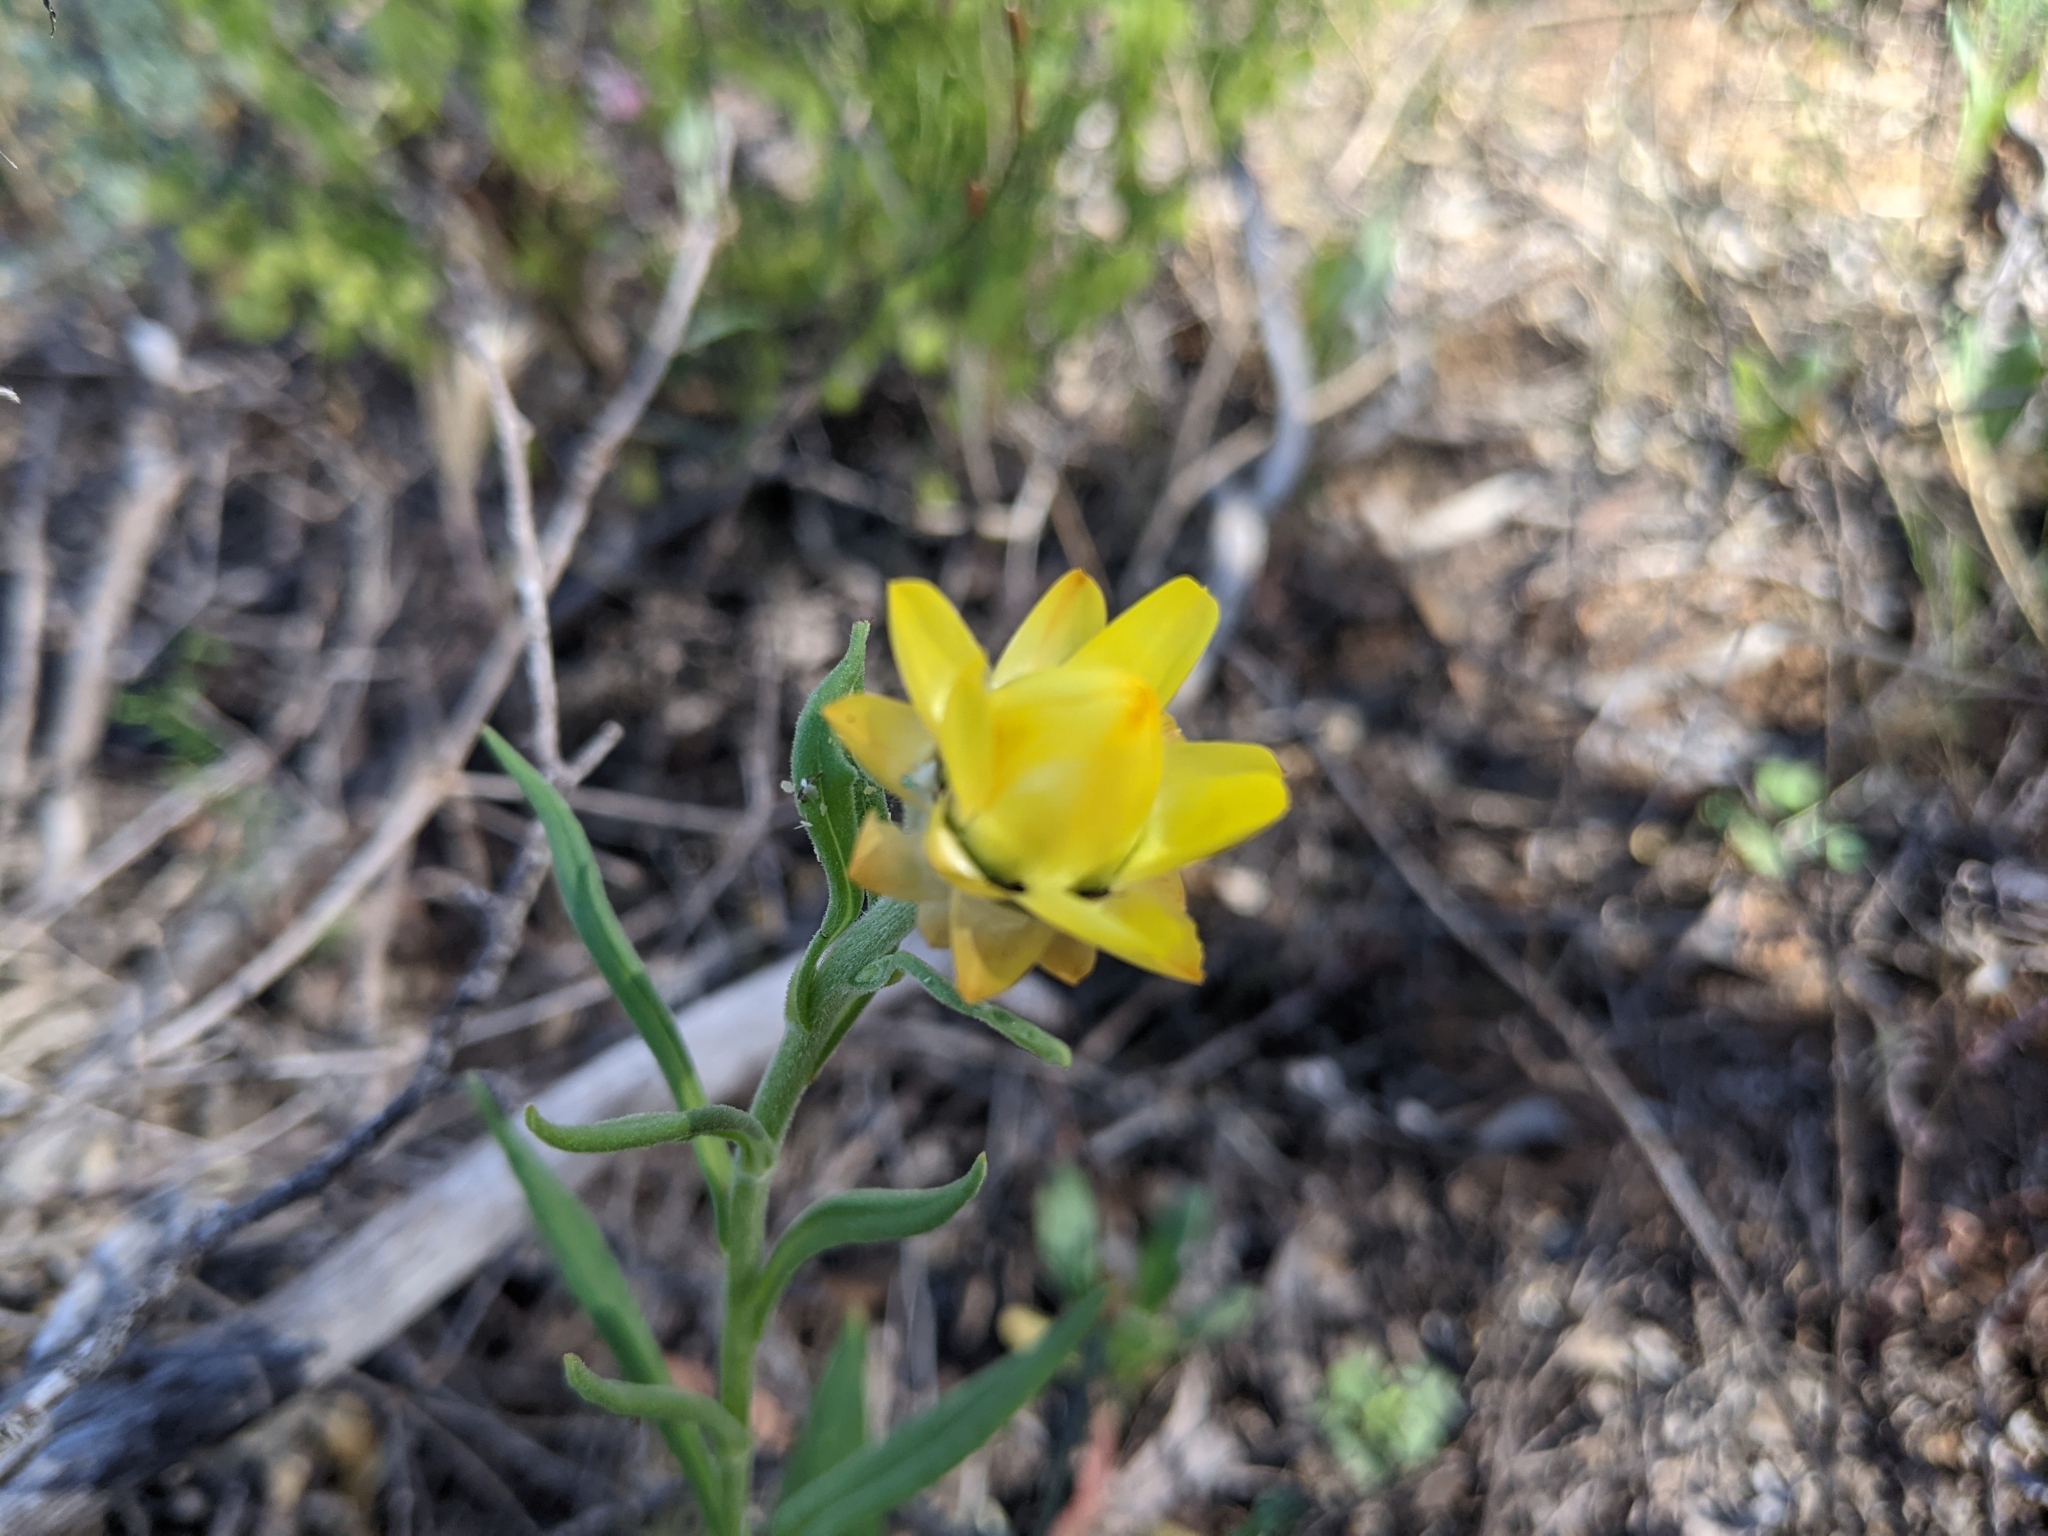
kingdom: Plantae
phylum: Tracheophyta
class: Magnoliopsida
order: Asterales
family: Asteraceae
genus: Xerochrysum
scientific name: Xerochrysum bracteatum
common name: Bracted strawflower
